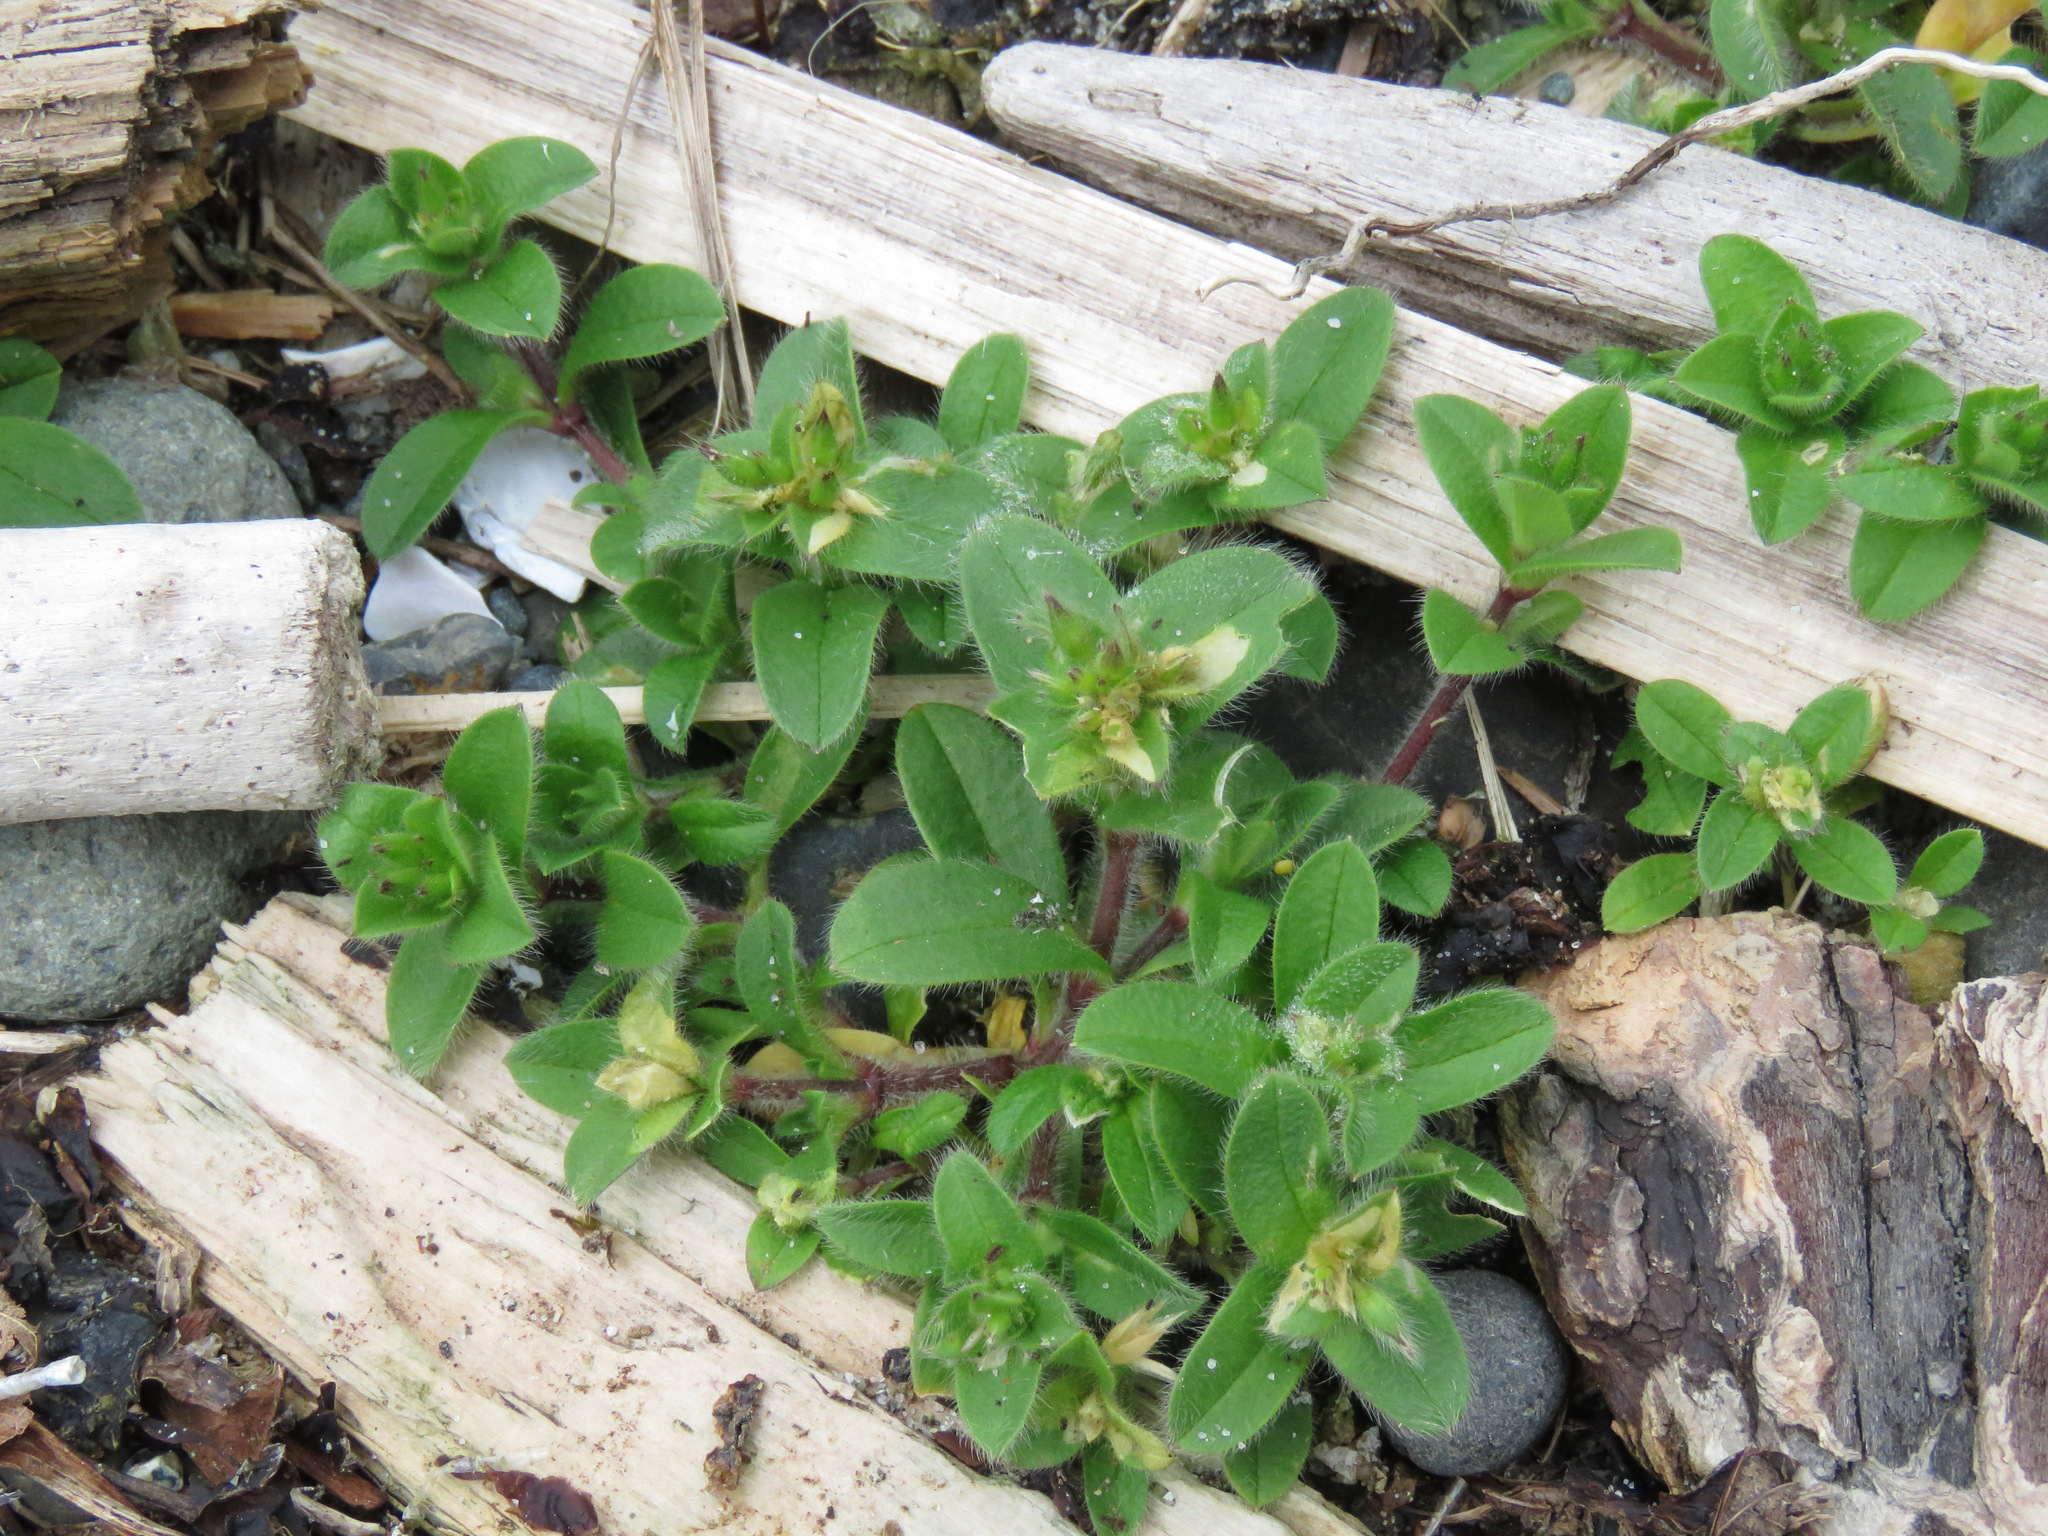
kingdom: Plantae
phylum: Tracheophyta
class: Magnoliopsida
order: Caryophyllales
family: Caryophyllaceae
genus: Cerastium
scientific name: Cerastium glomeratum
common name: Sticky chickweed
